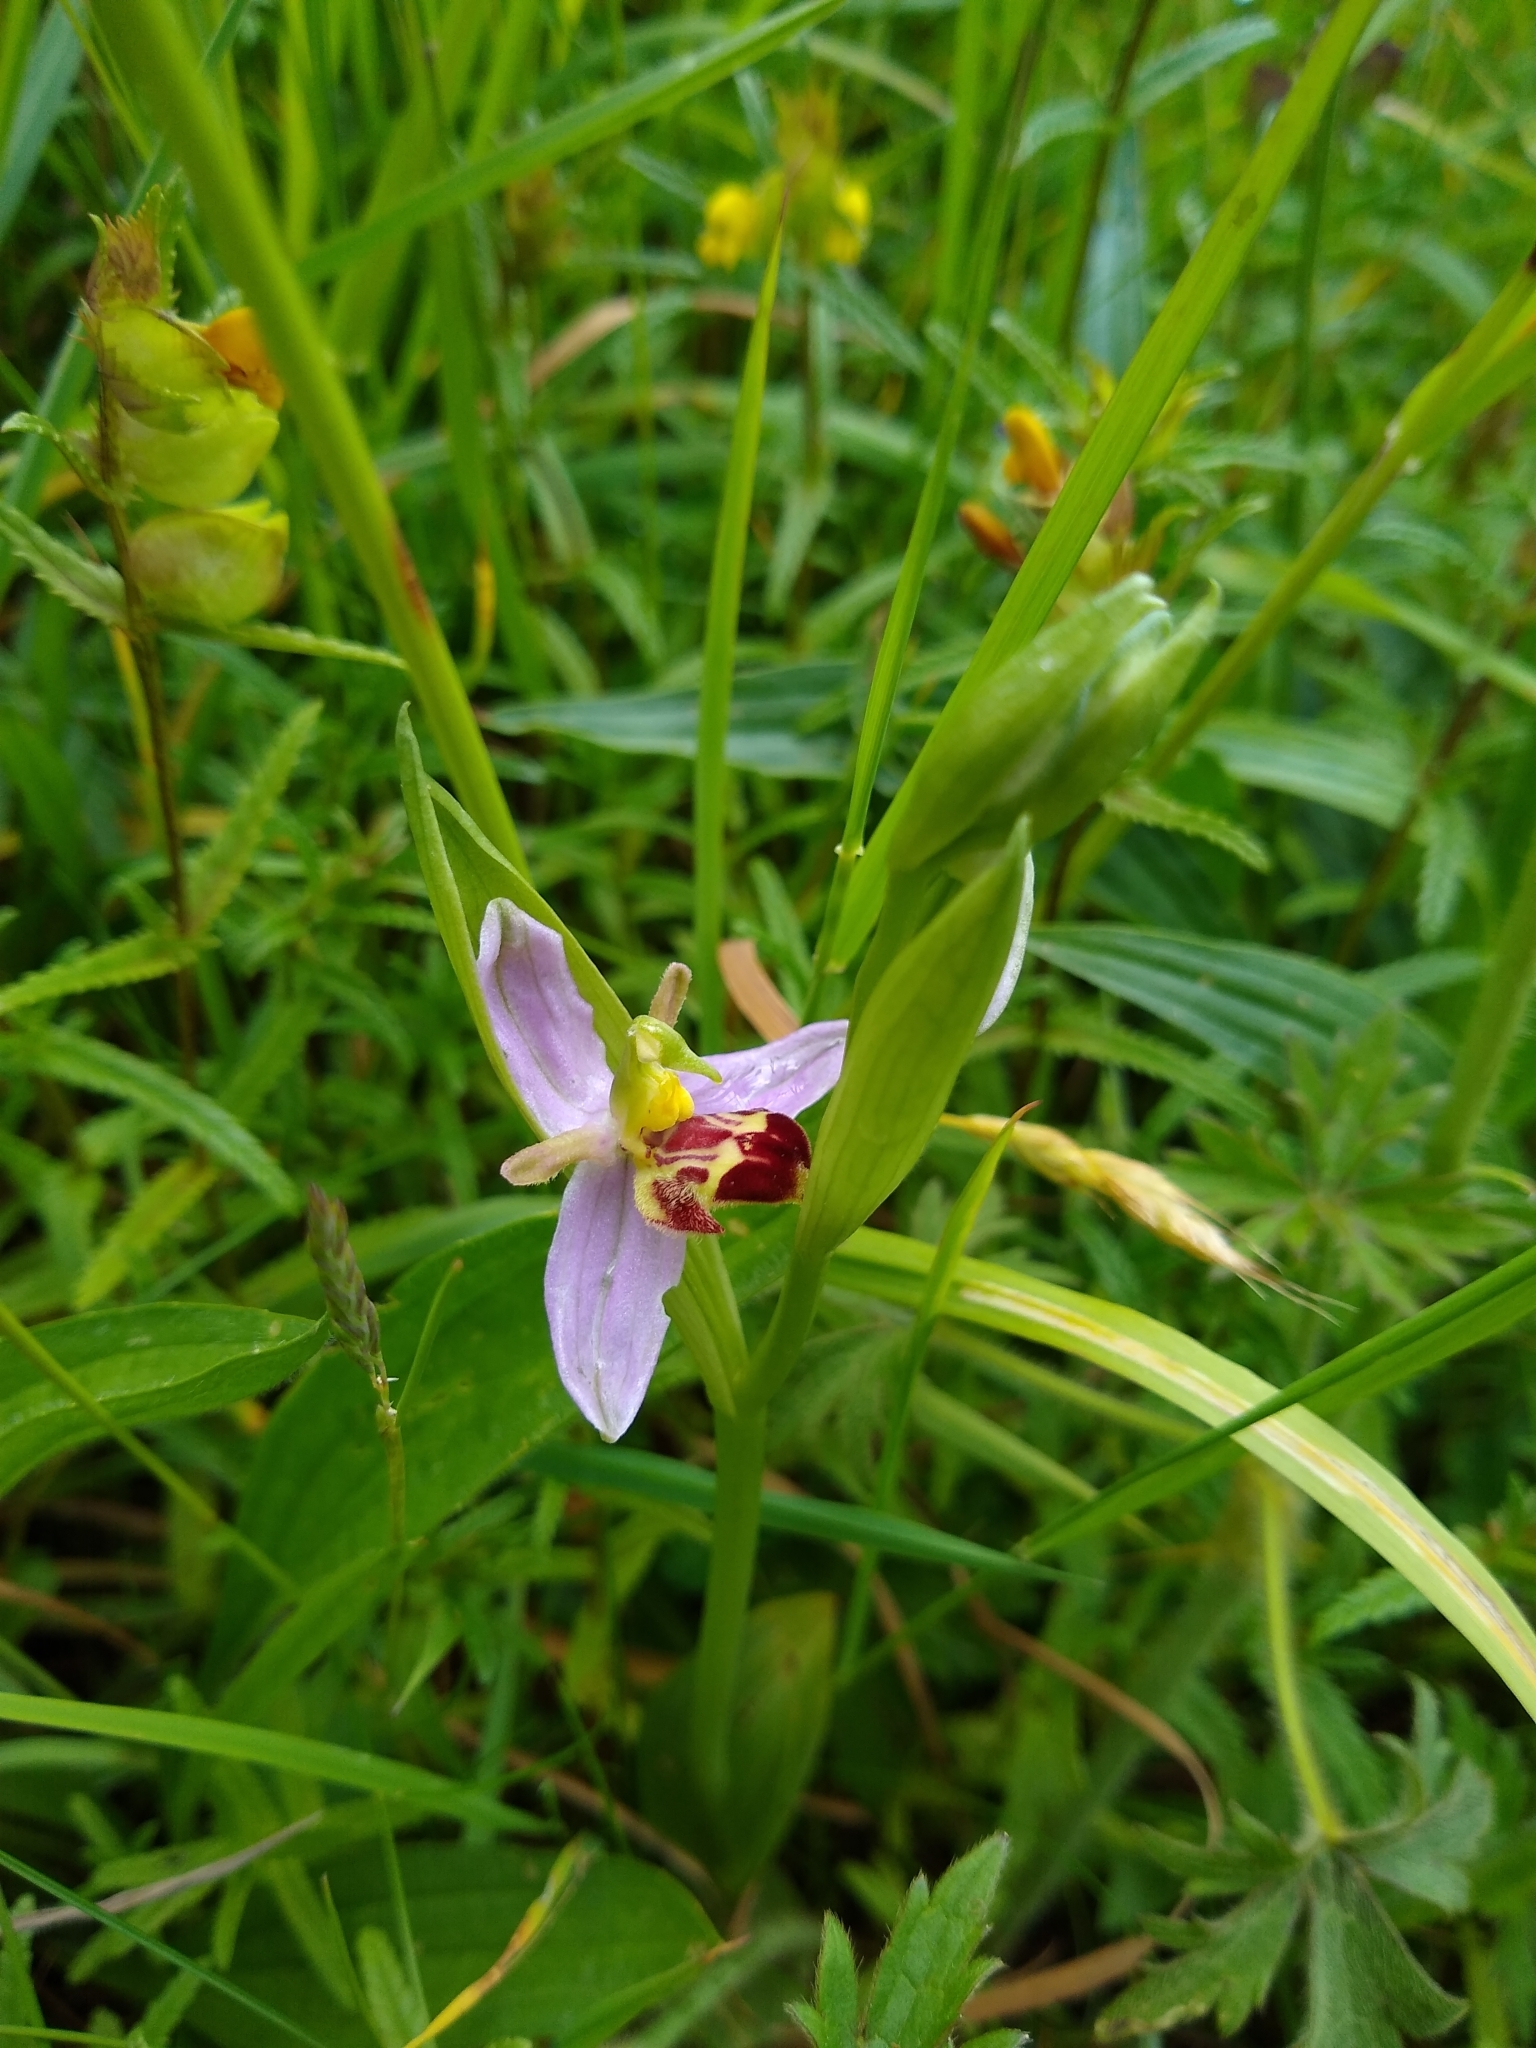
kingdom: Plantae
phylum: Tracheophyta
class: Liliopsida
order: Asparagales
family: Orchidaceae
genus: Ophrys
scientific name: Ophrys apifera
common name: Bee orchid
